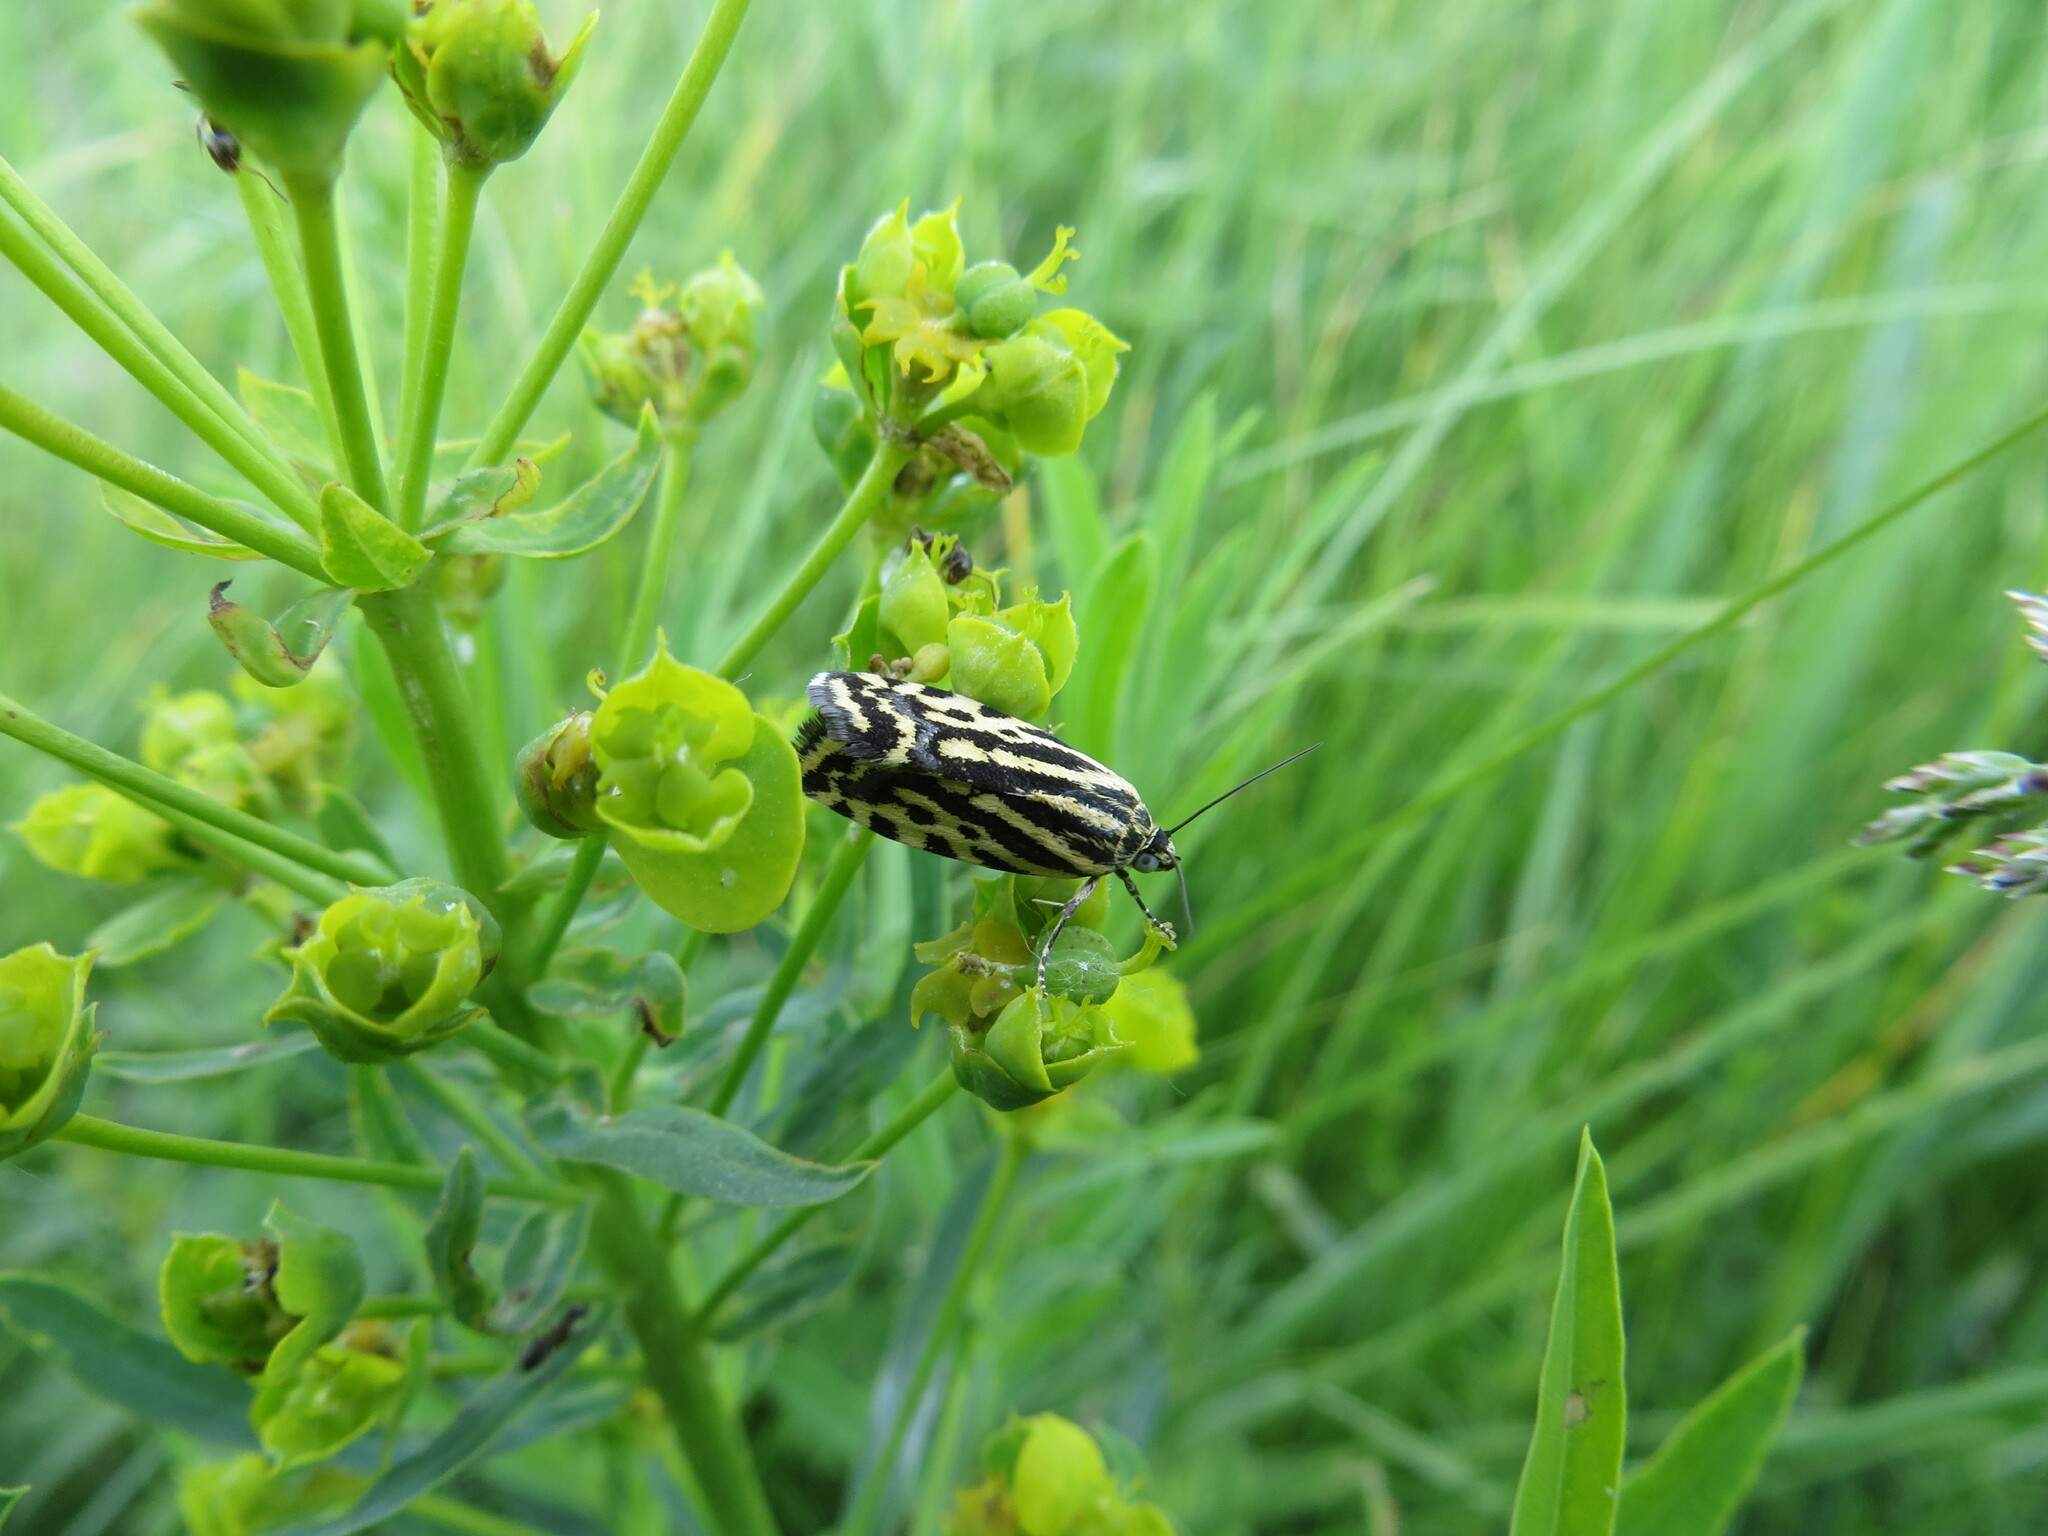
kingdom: Animalia
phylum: Arthropoda
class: Insecta
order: Lepidoptera
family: Noctuidae
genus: Acontia
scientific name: Acontia trabealis
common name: Spotted sulphur
